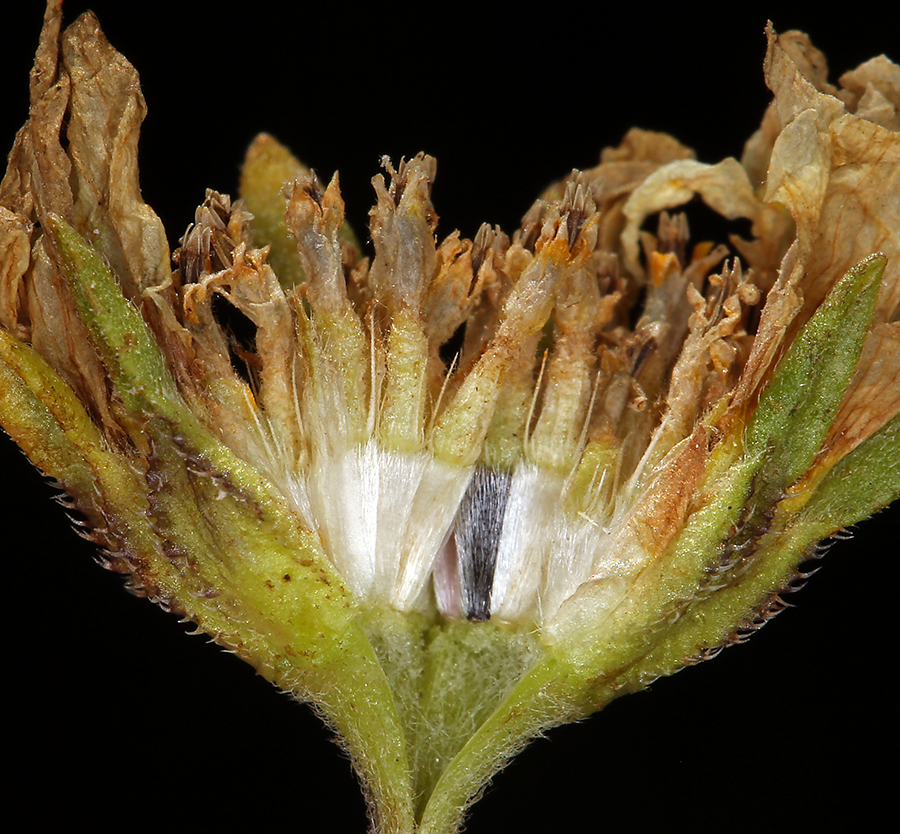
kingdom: Plantae
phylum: Tracheophyta
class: Magnoliopsida
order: Asterales
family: Asteraceae
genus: Layia
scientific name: Layia chrysanthemoides
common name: Smooth layia
